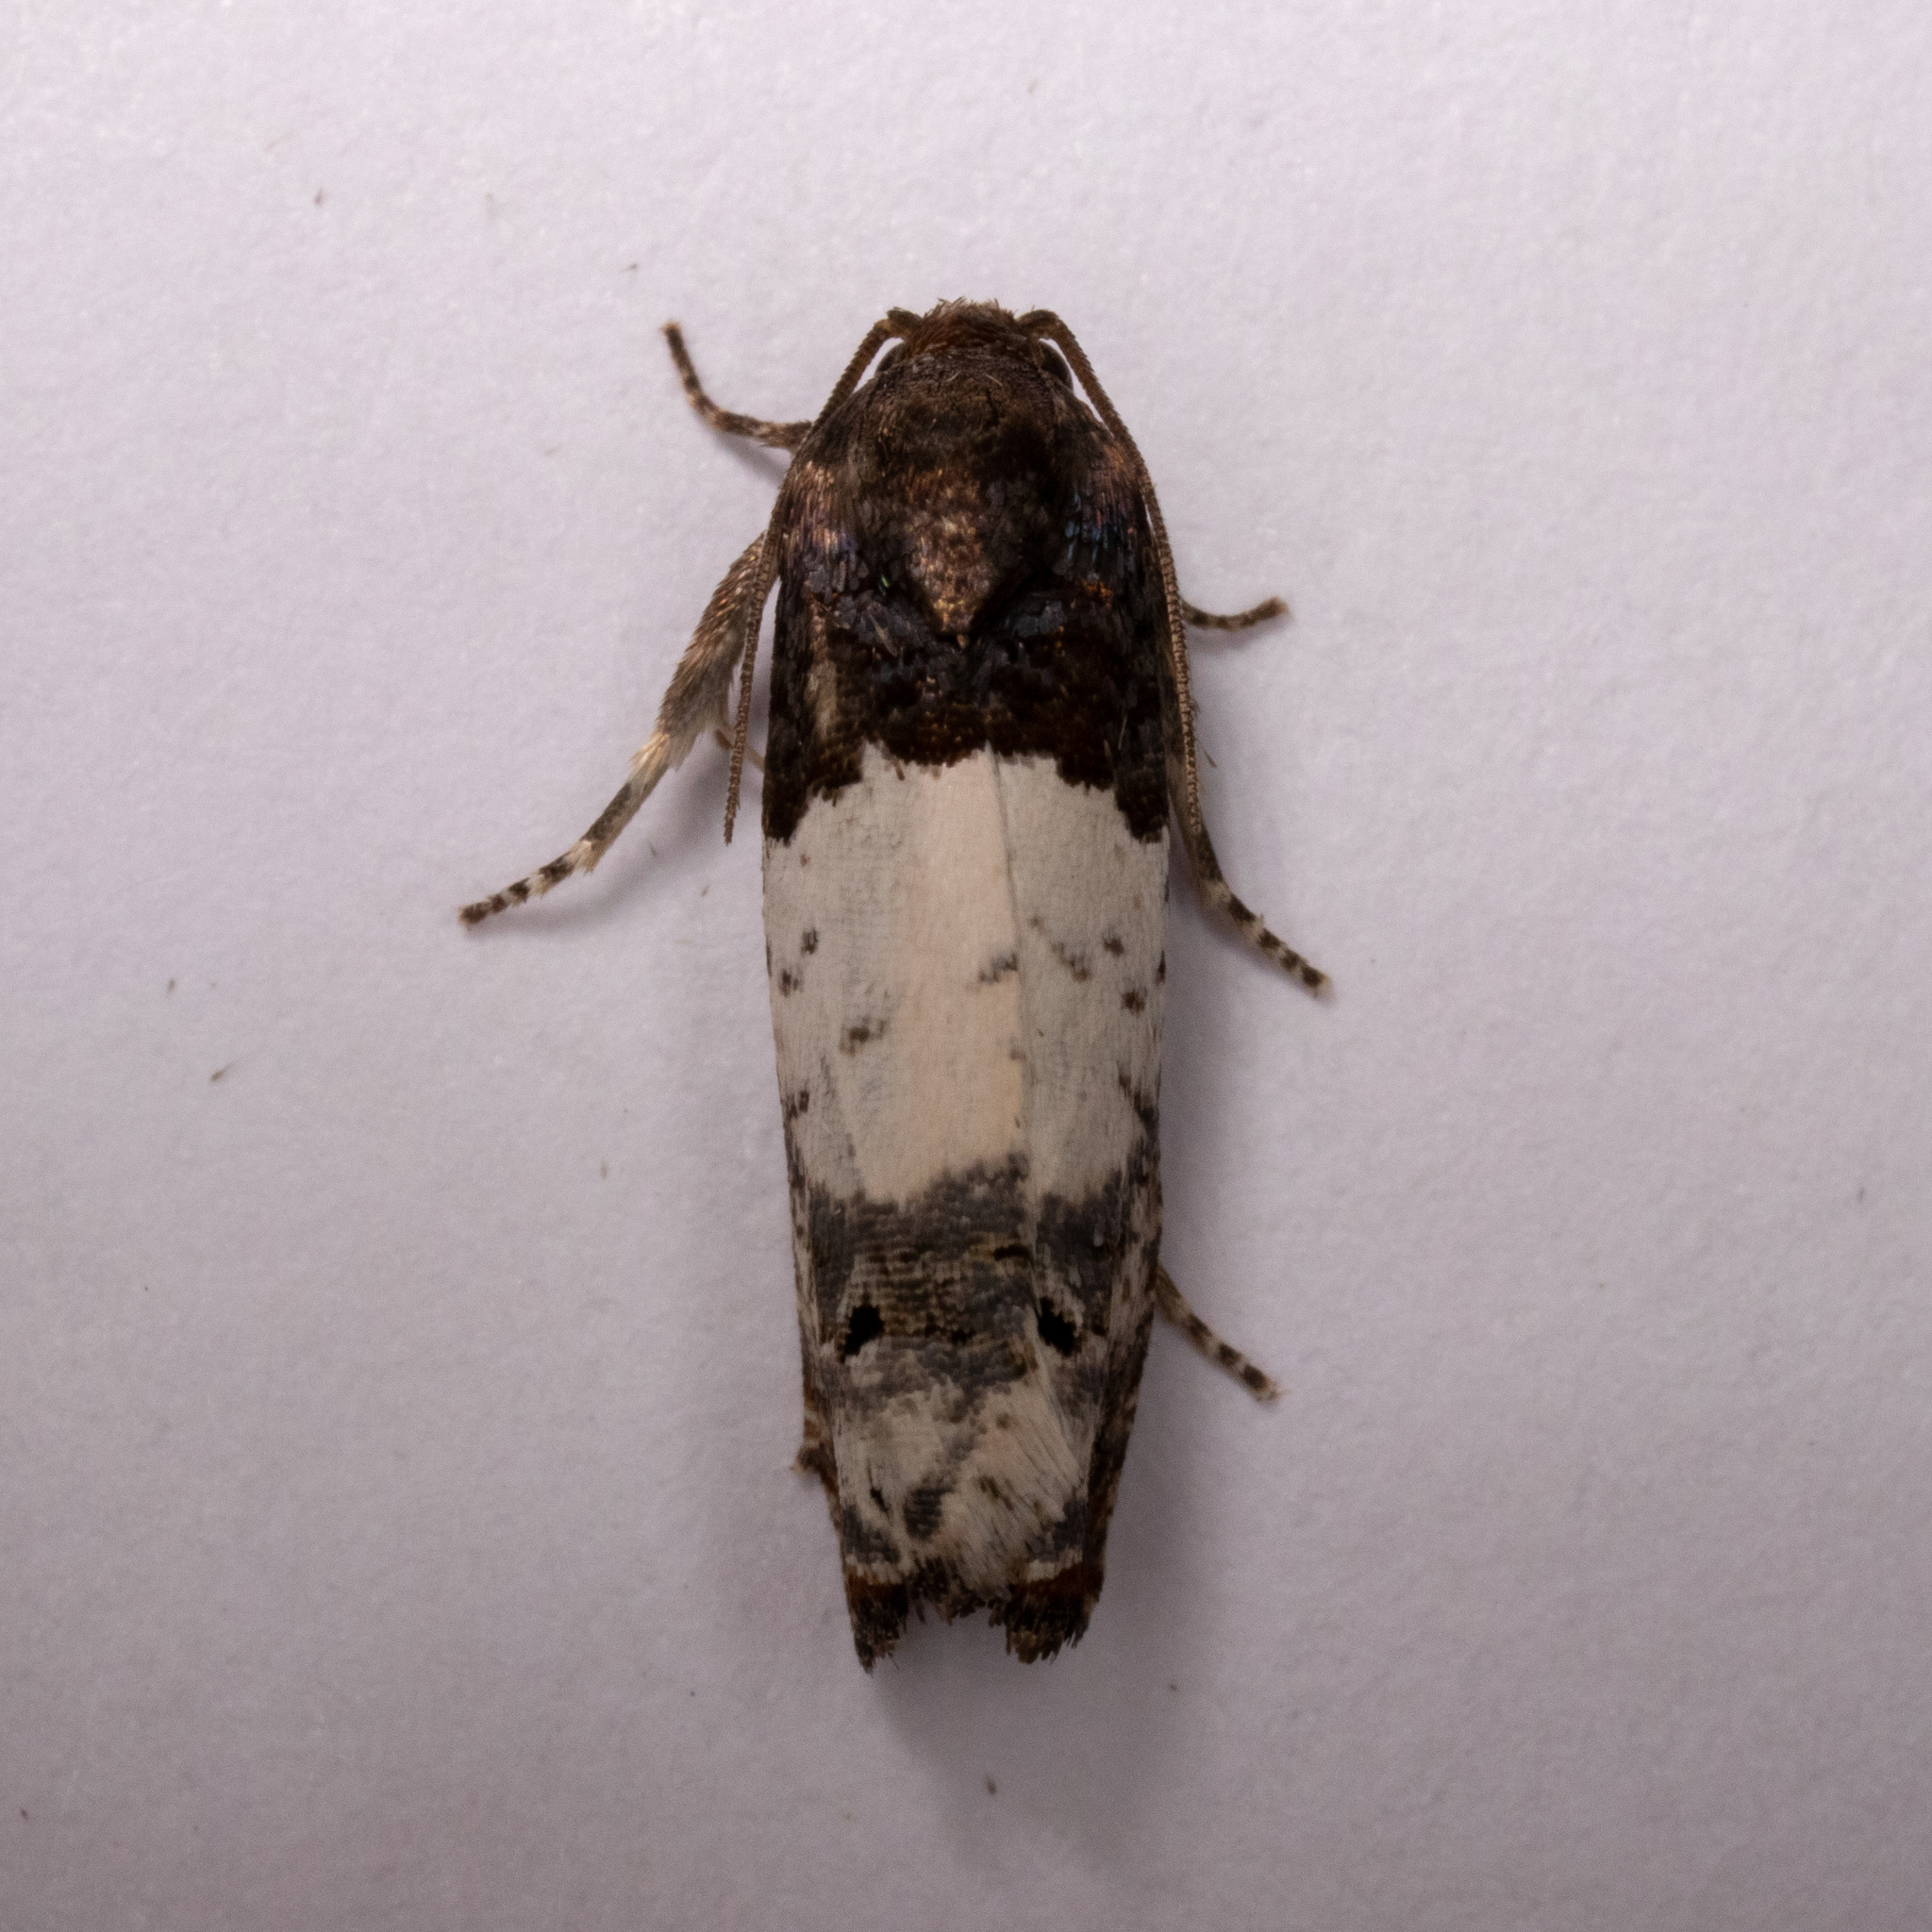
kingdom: Animalia
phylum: Arthropoda
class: Insecta
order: Lepidoptera
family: Tortricidae
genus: Epiblema
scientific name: Epiblema scudderiana
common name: Goldenrod gall moth
